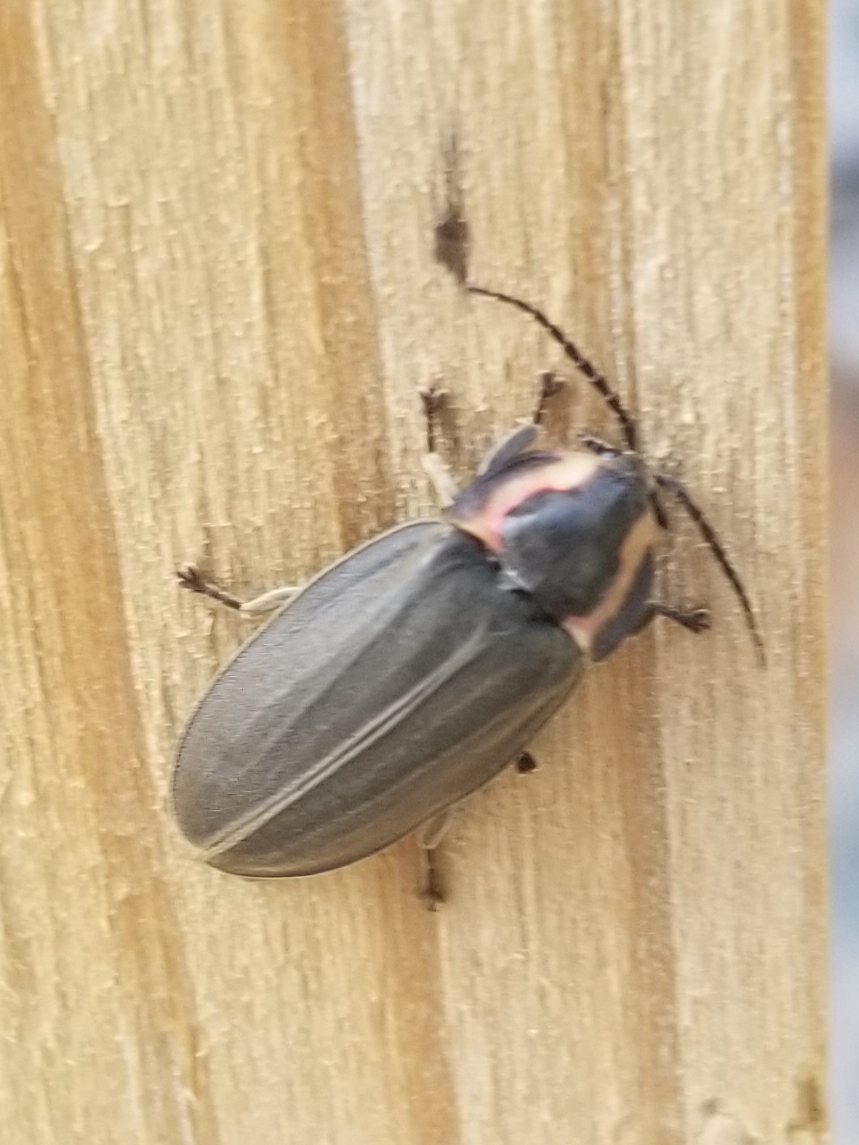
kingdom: Animalia
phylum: Arthropoda
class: Insecta
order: Coleoptera
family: Lampyridae
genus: Photinus
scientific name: Photinus corrusca
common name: Winter firefly
